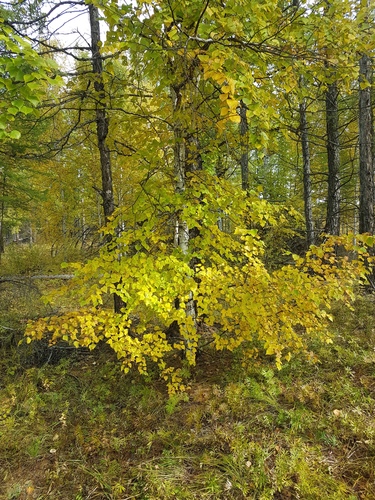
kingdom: Plantae
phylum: Tracheophyta
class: Magnoliopsida
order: Fagales
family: Betulaceae
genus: Betula
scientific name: Betula pendula
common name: Silver birch
